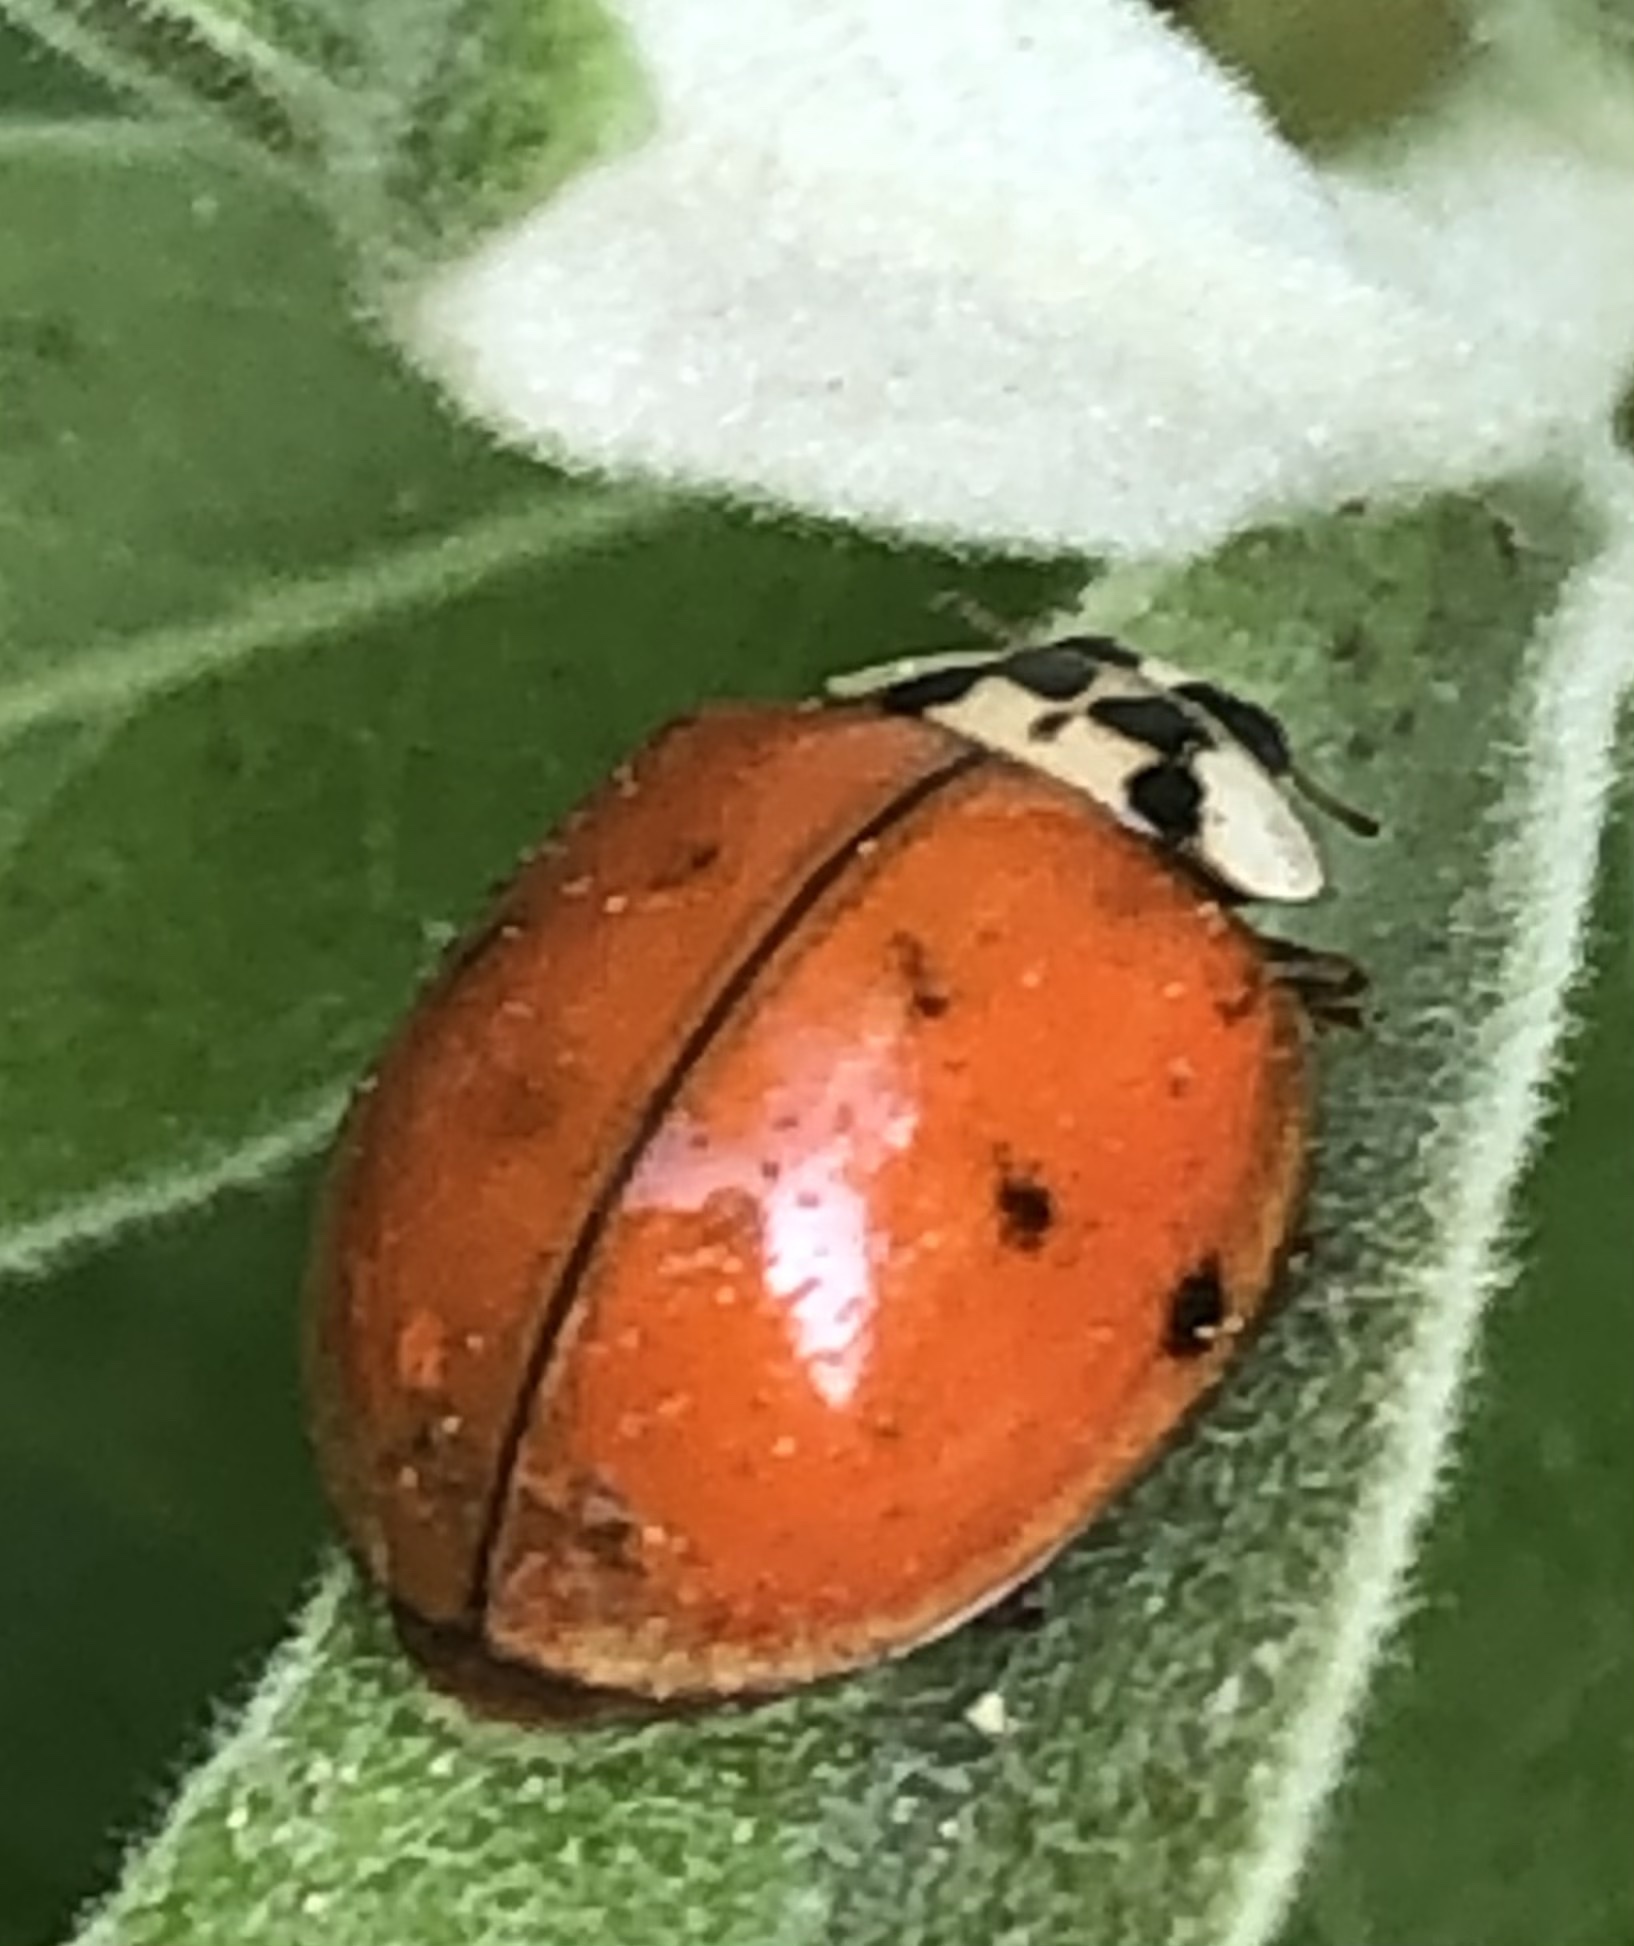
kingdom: Animalia
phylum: Arthropoda
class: Insecta
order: Coleoptera
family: Coccinellidae
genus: Harmonia
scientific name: Harmonia axyridis
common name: Harlequin ladybird
